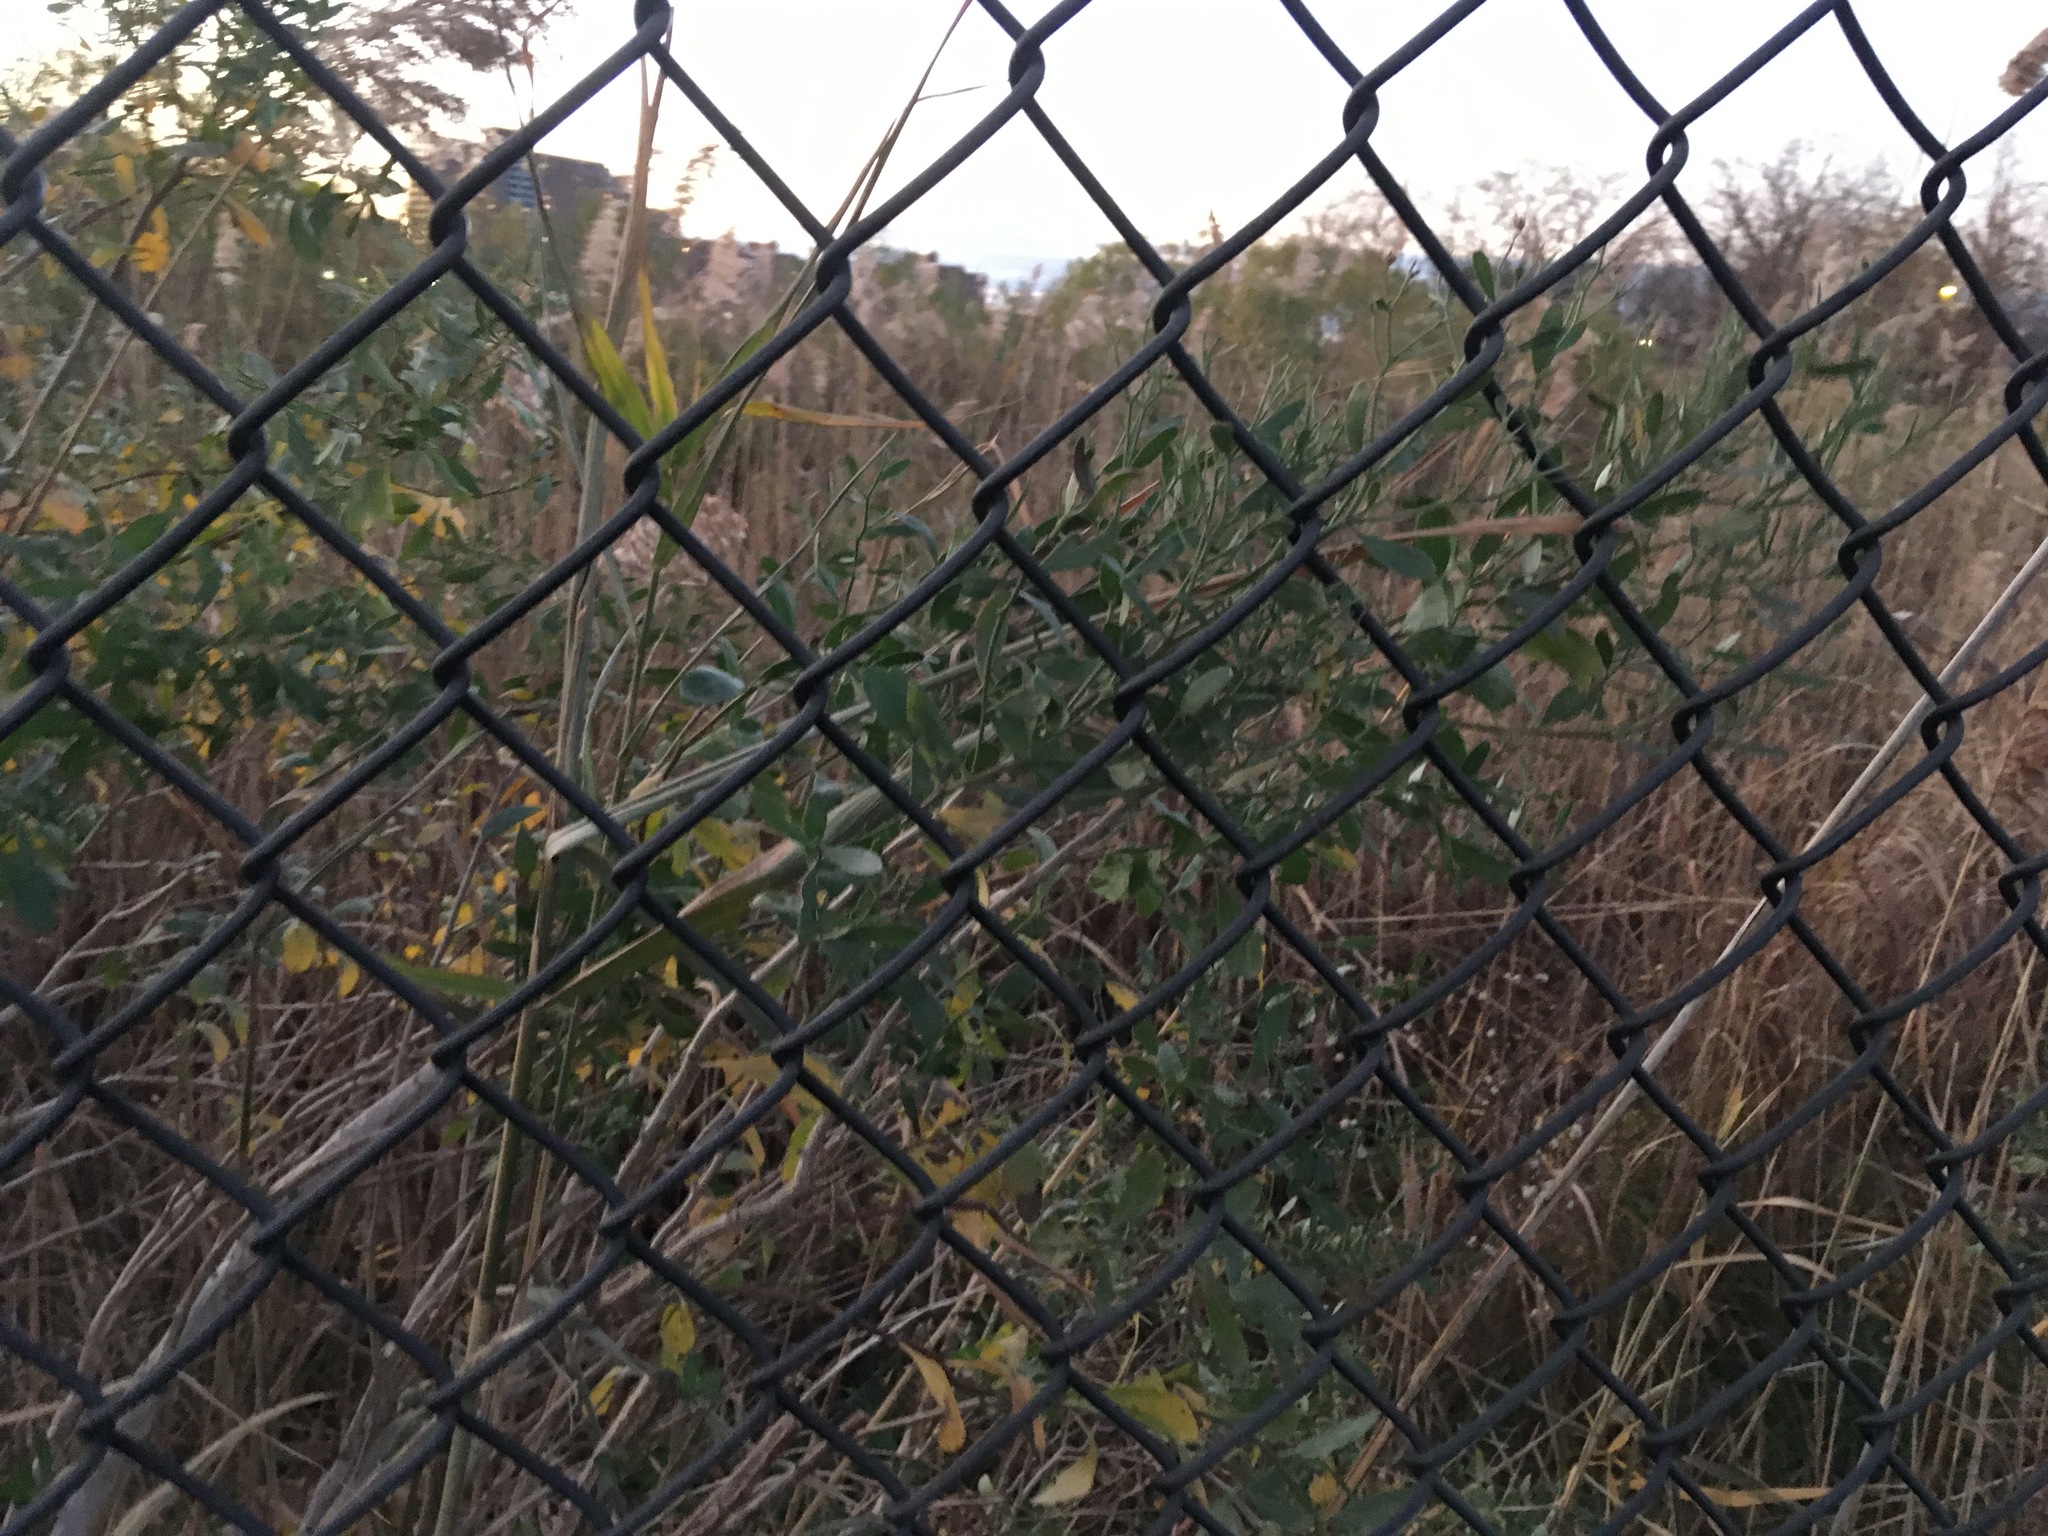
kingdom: Plantae
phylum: Tracheophyta
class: Magnoliopsida
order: Asterales
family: Asteraceae
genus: Baccharis
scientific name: Baccharis halimifolia
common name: Eastern baccharis
